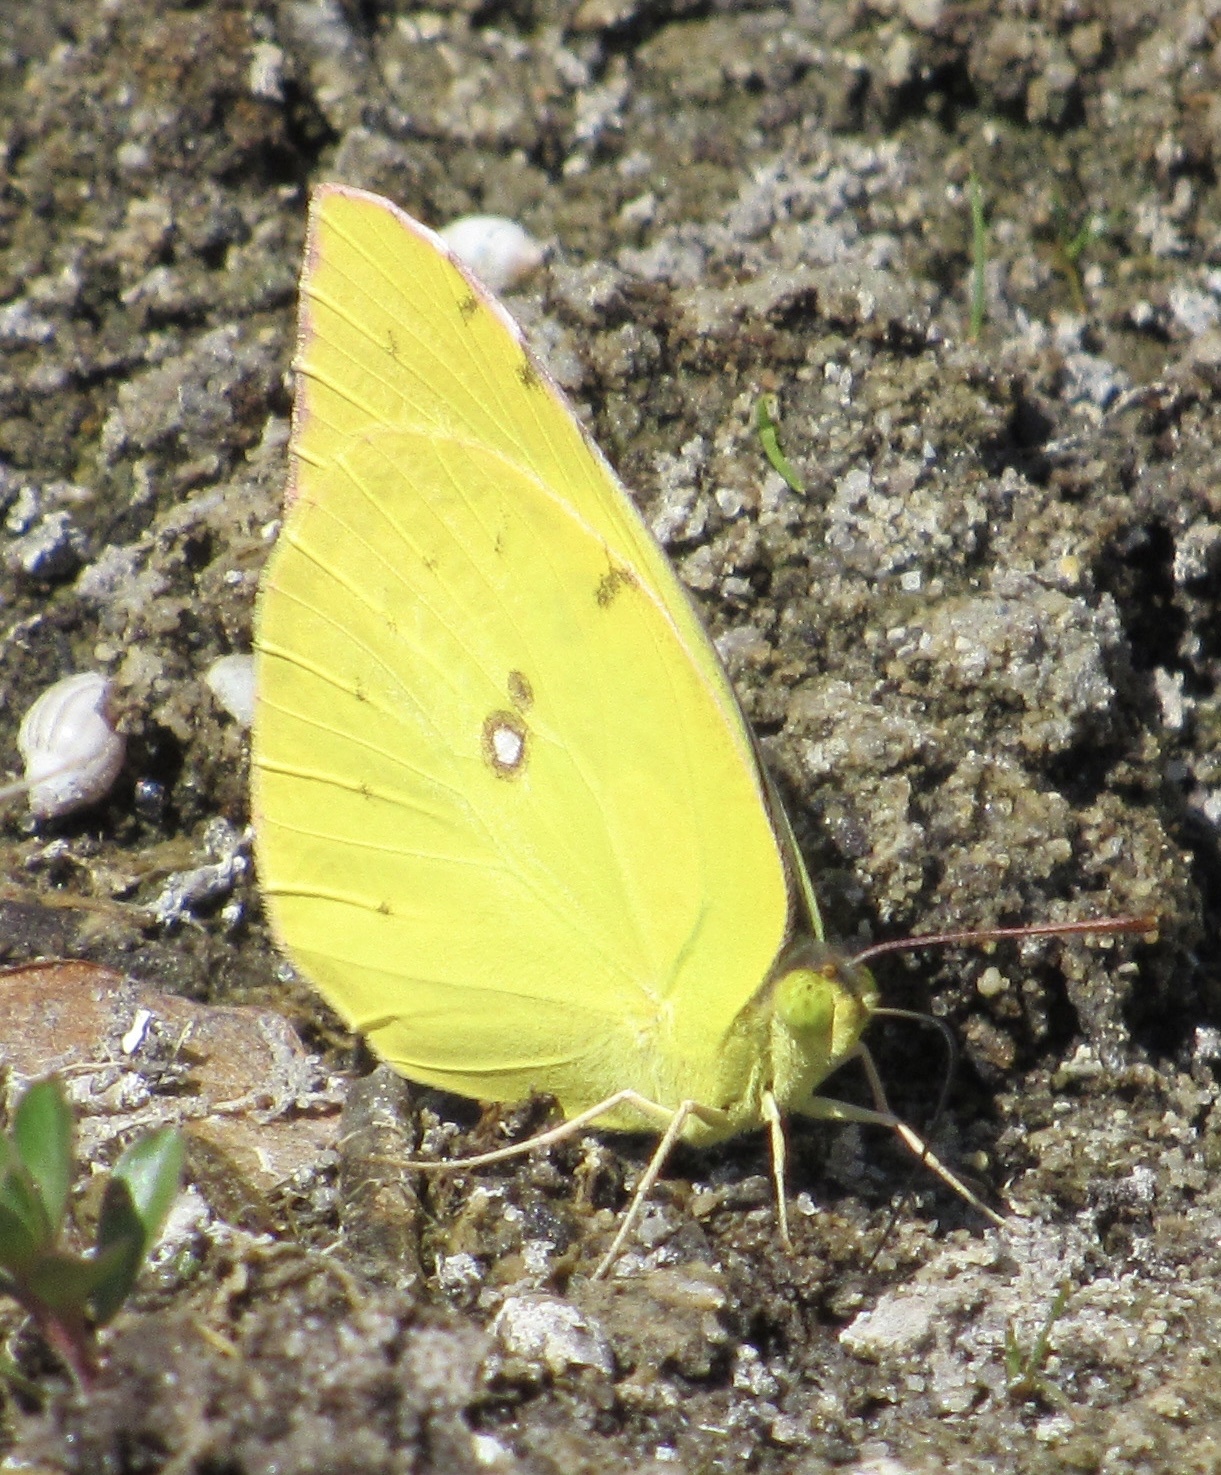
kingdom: Animalia
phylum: Arthropoda
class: Insecta
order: Lepidoptera
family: Pieridae
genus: Zerene
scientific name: Zerene cesonia
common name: Southern dogface
